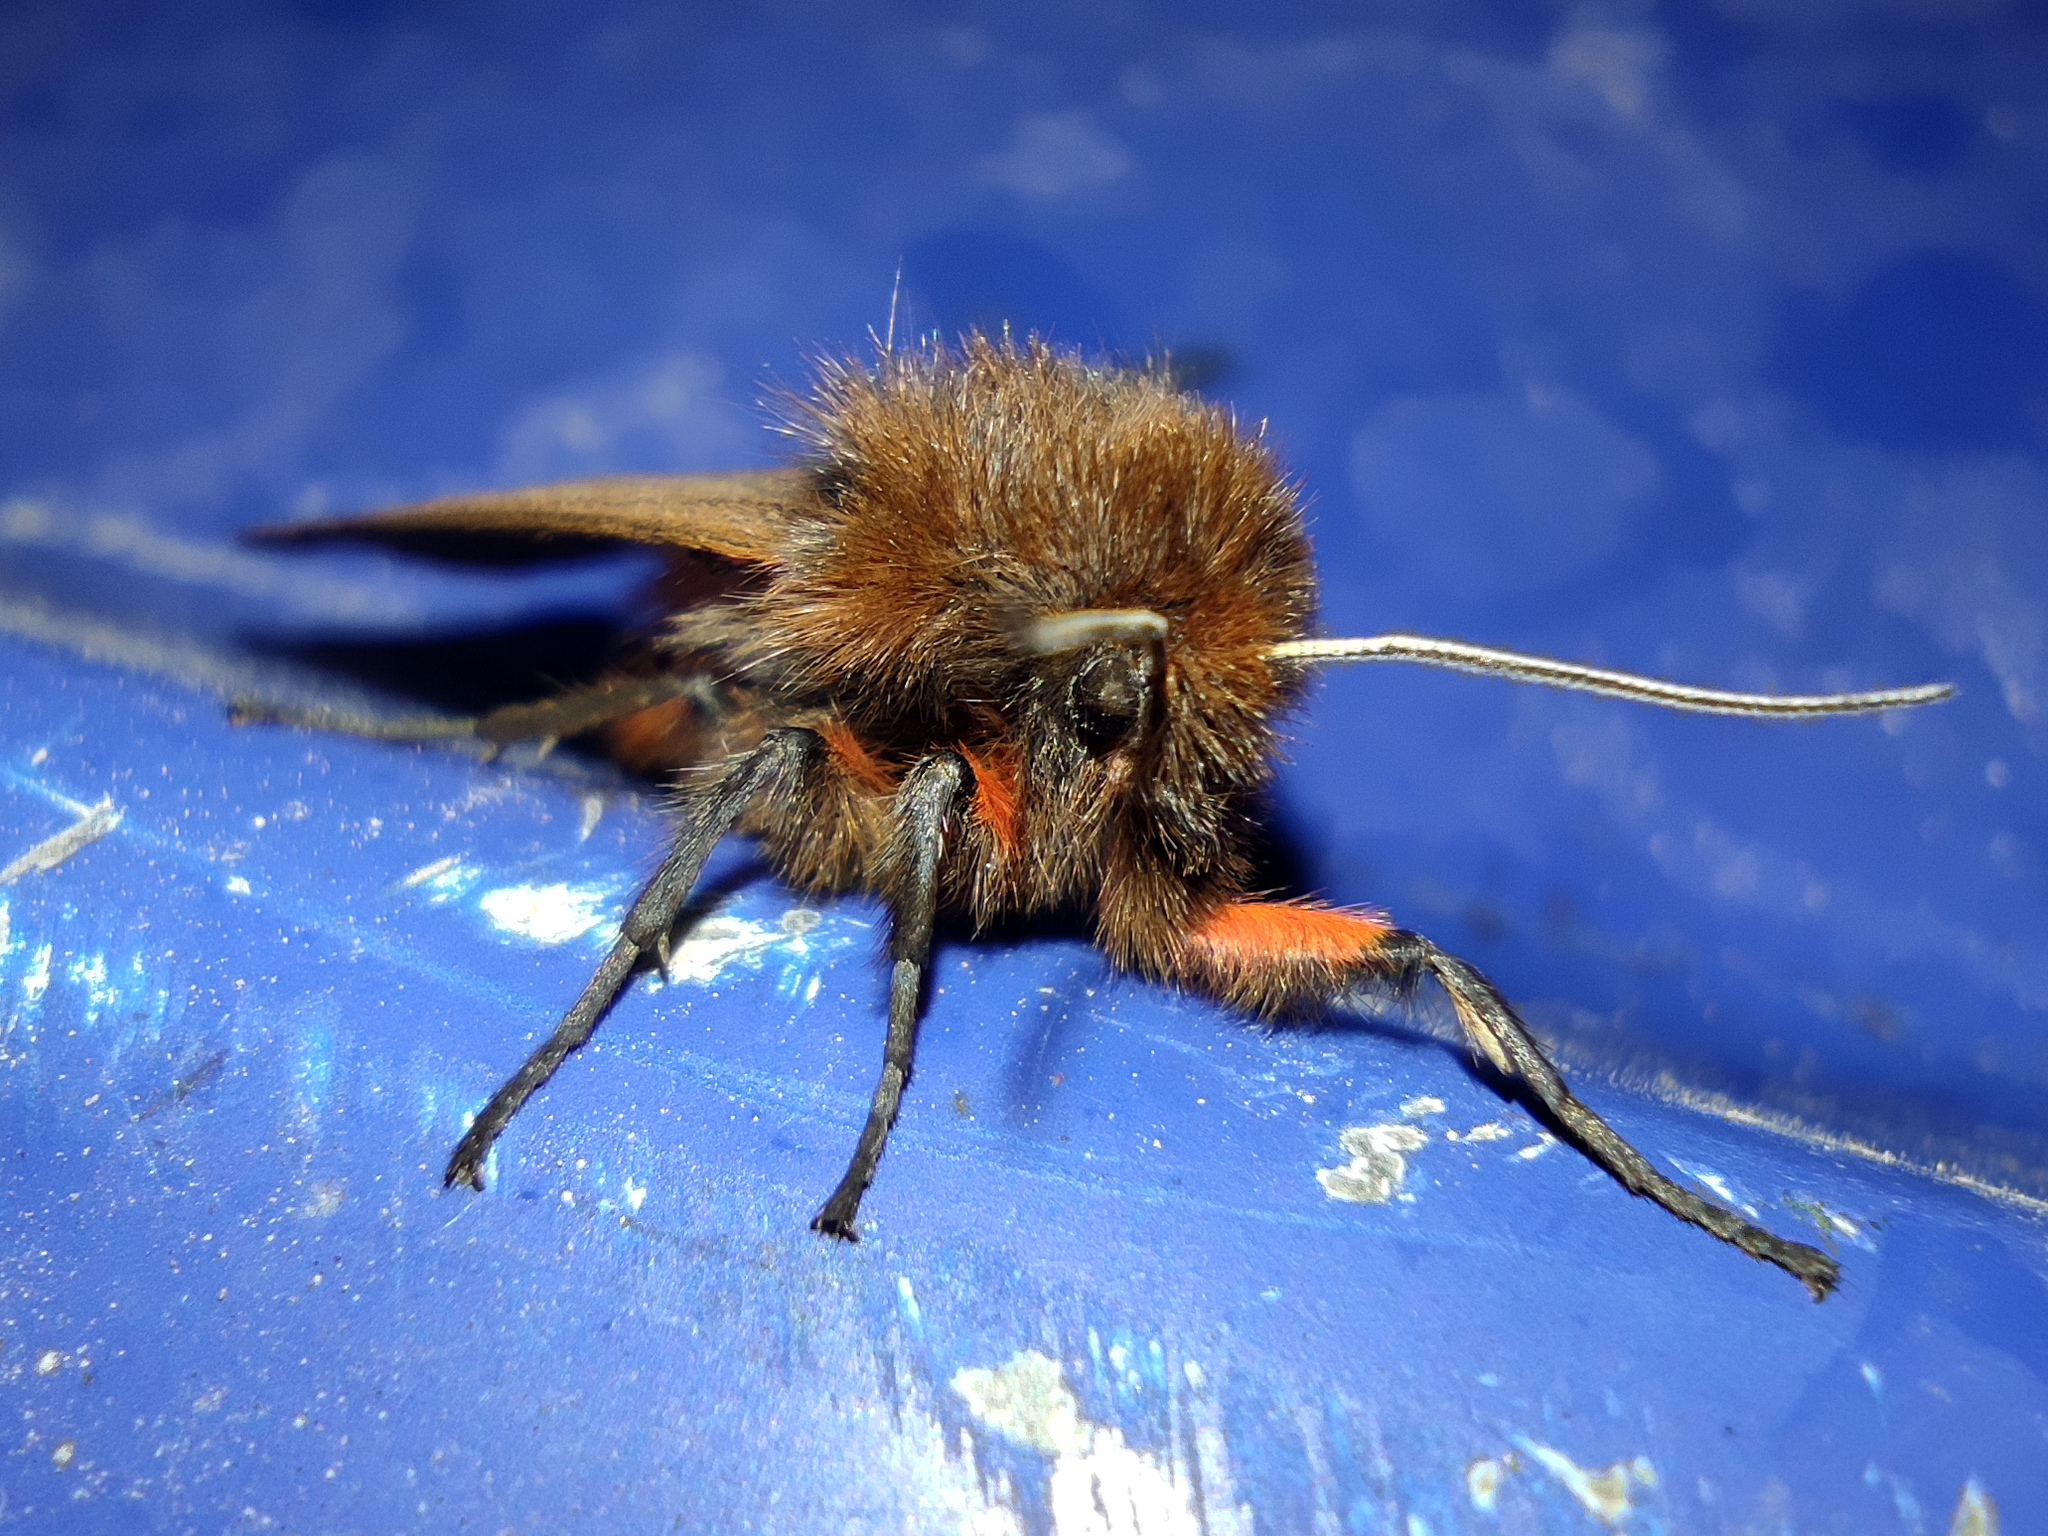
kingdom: Animalia
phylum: Arthropoda
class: Insecta
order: Lepidoptera
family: Erebidae
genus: Phragmatobia
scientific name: Phragmatobia fuliginosa
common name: Ruby tiger
